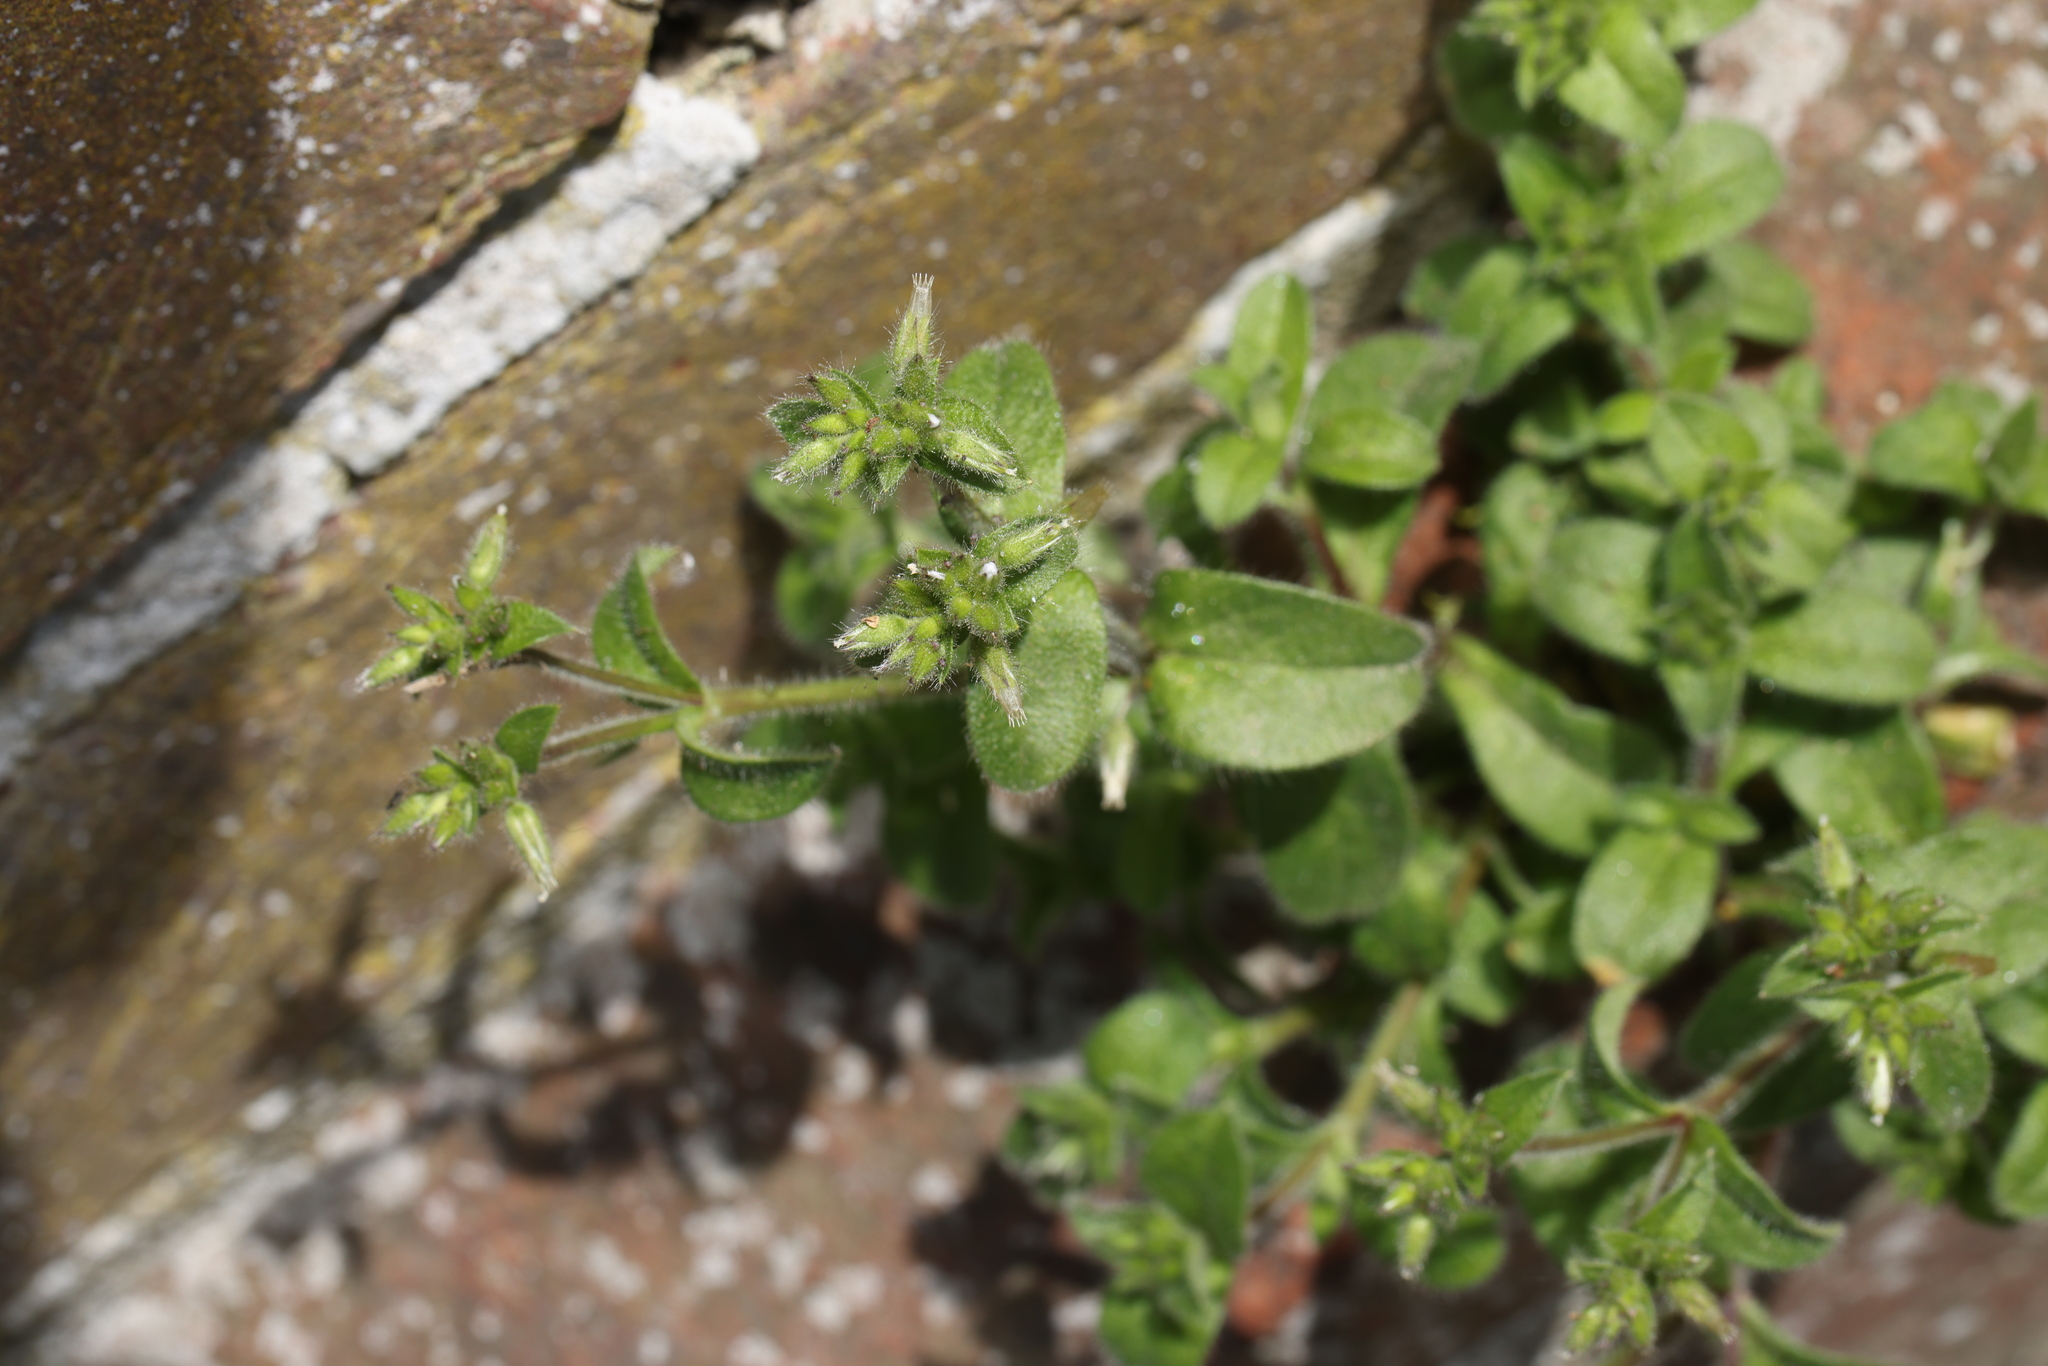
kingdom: Plantae
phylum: Tracheophyta
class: Magnoliopsida
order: Caryophyllales
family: Caryophyllaceae
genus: Cerastium
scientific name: Cerastium glomeratum
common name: Sticky chickweed
